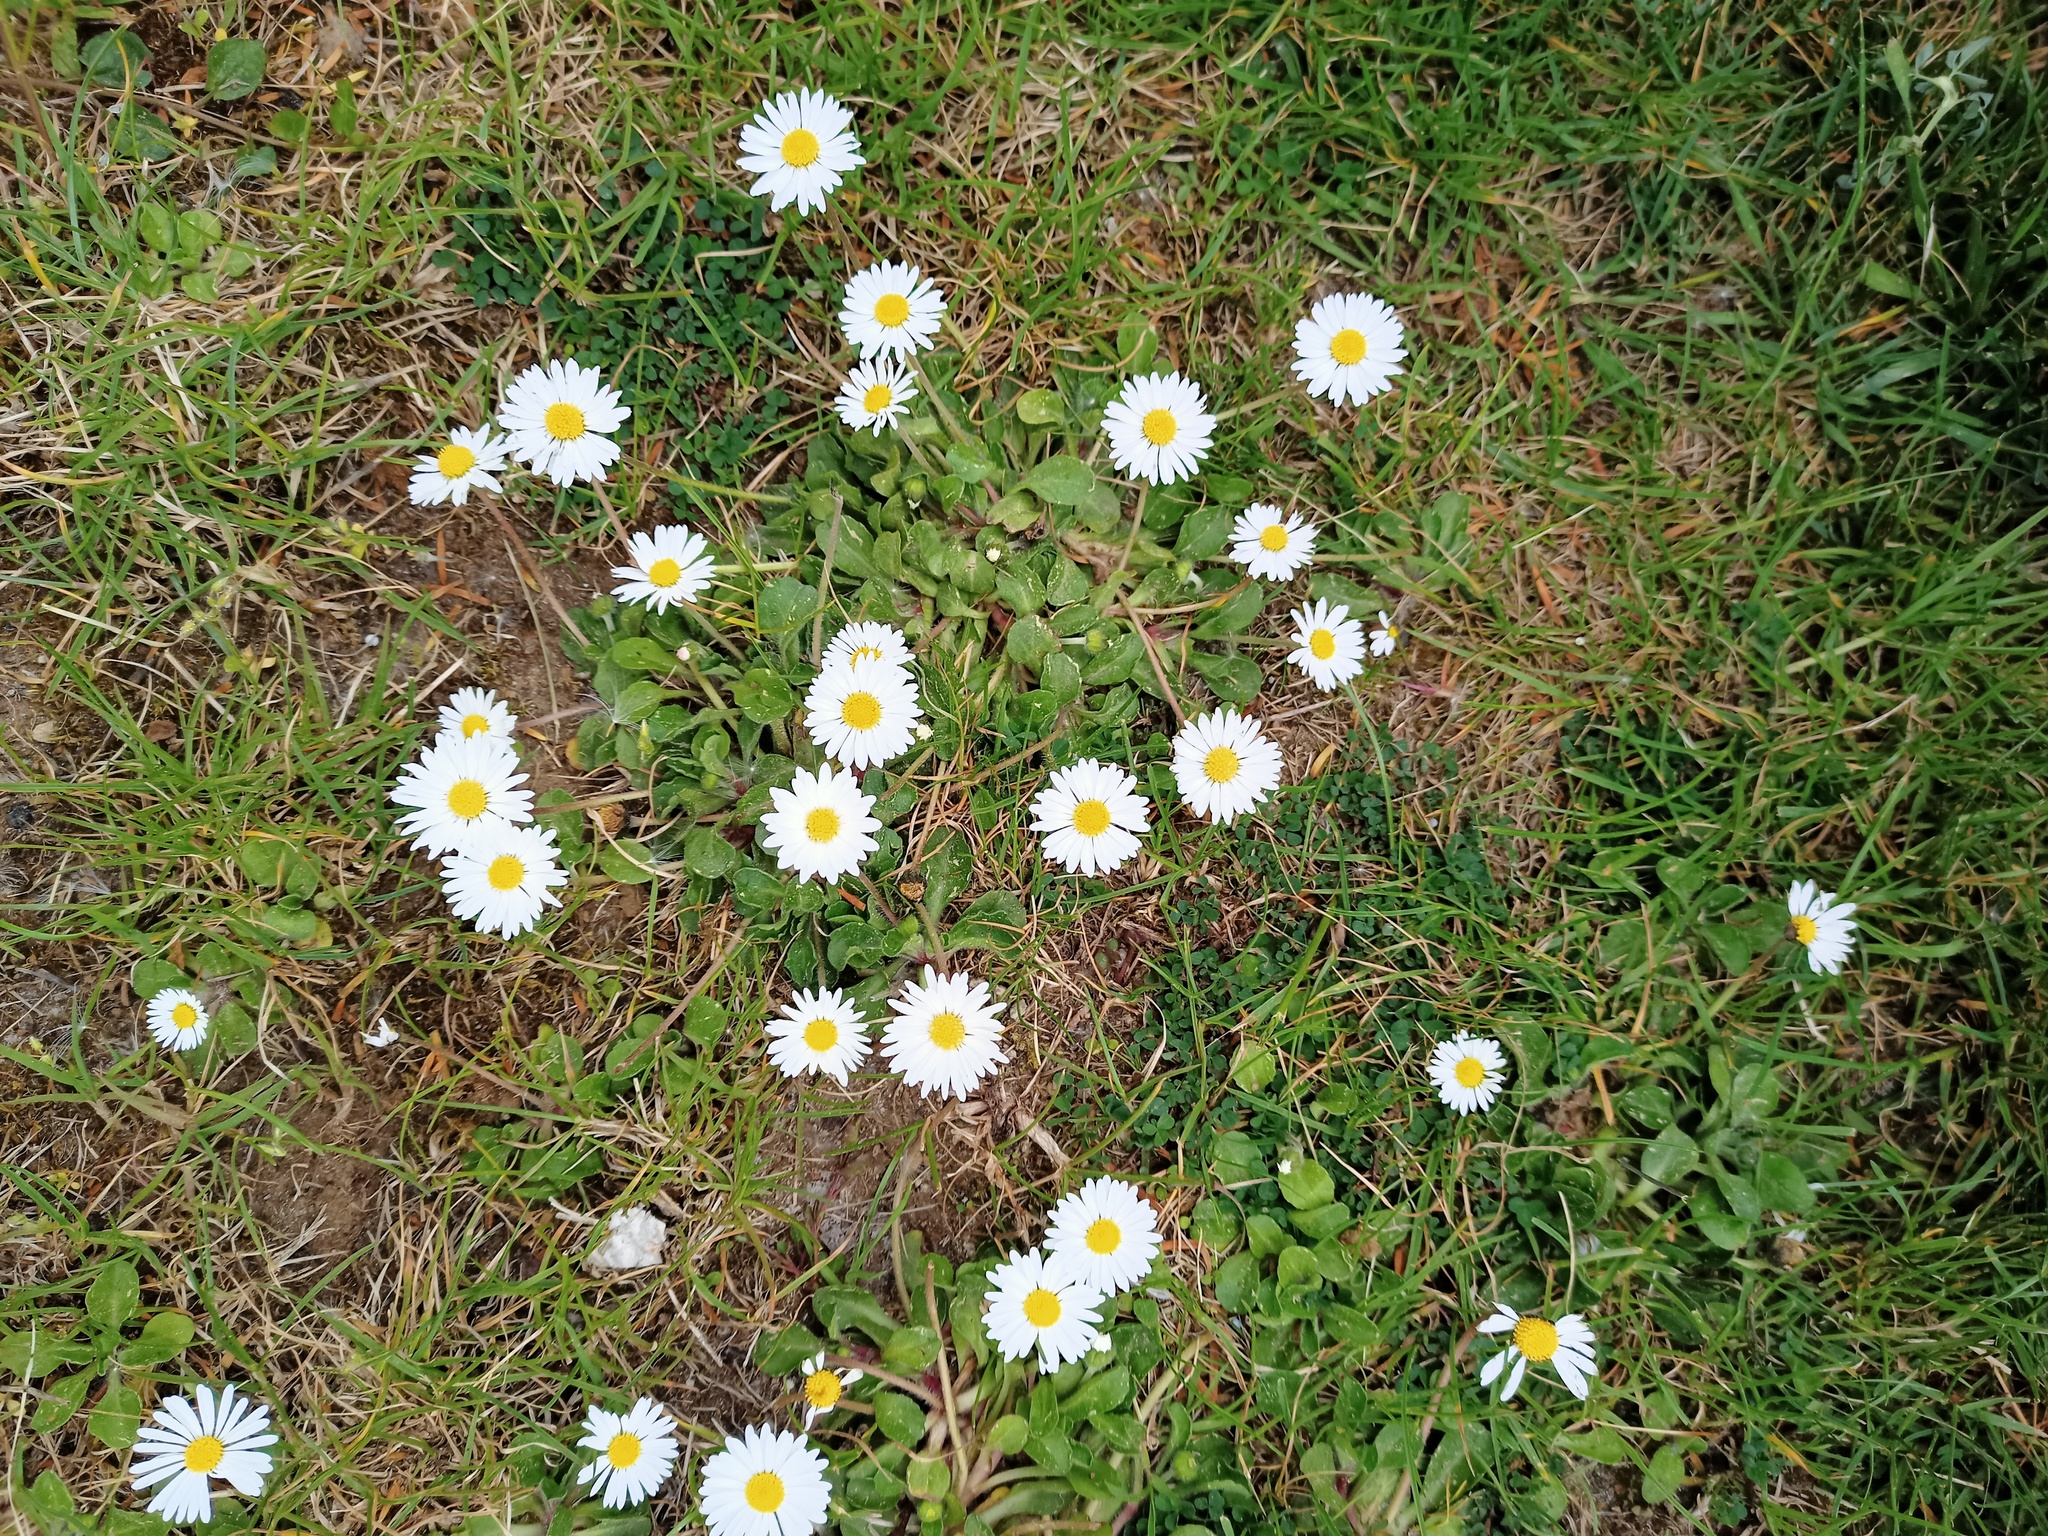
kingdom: Plantae
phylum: Tracheophyta
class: Magnoliopsida
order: Asterales
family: Asteraceae
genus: Bellis
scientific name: Bellis perennis
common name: Lawndaisy
